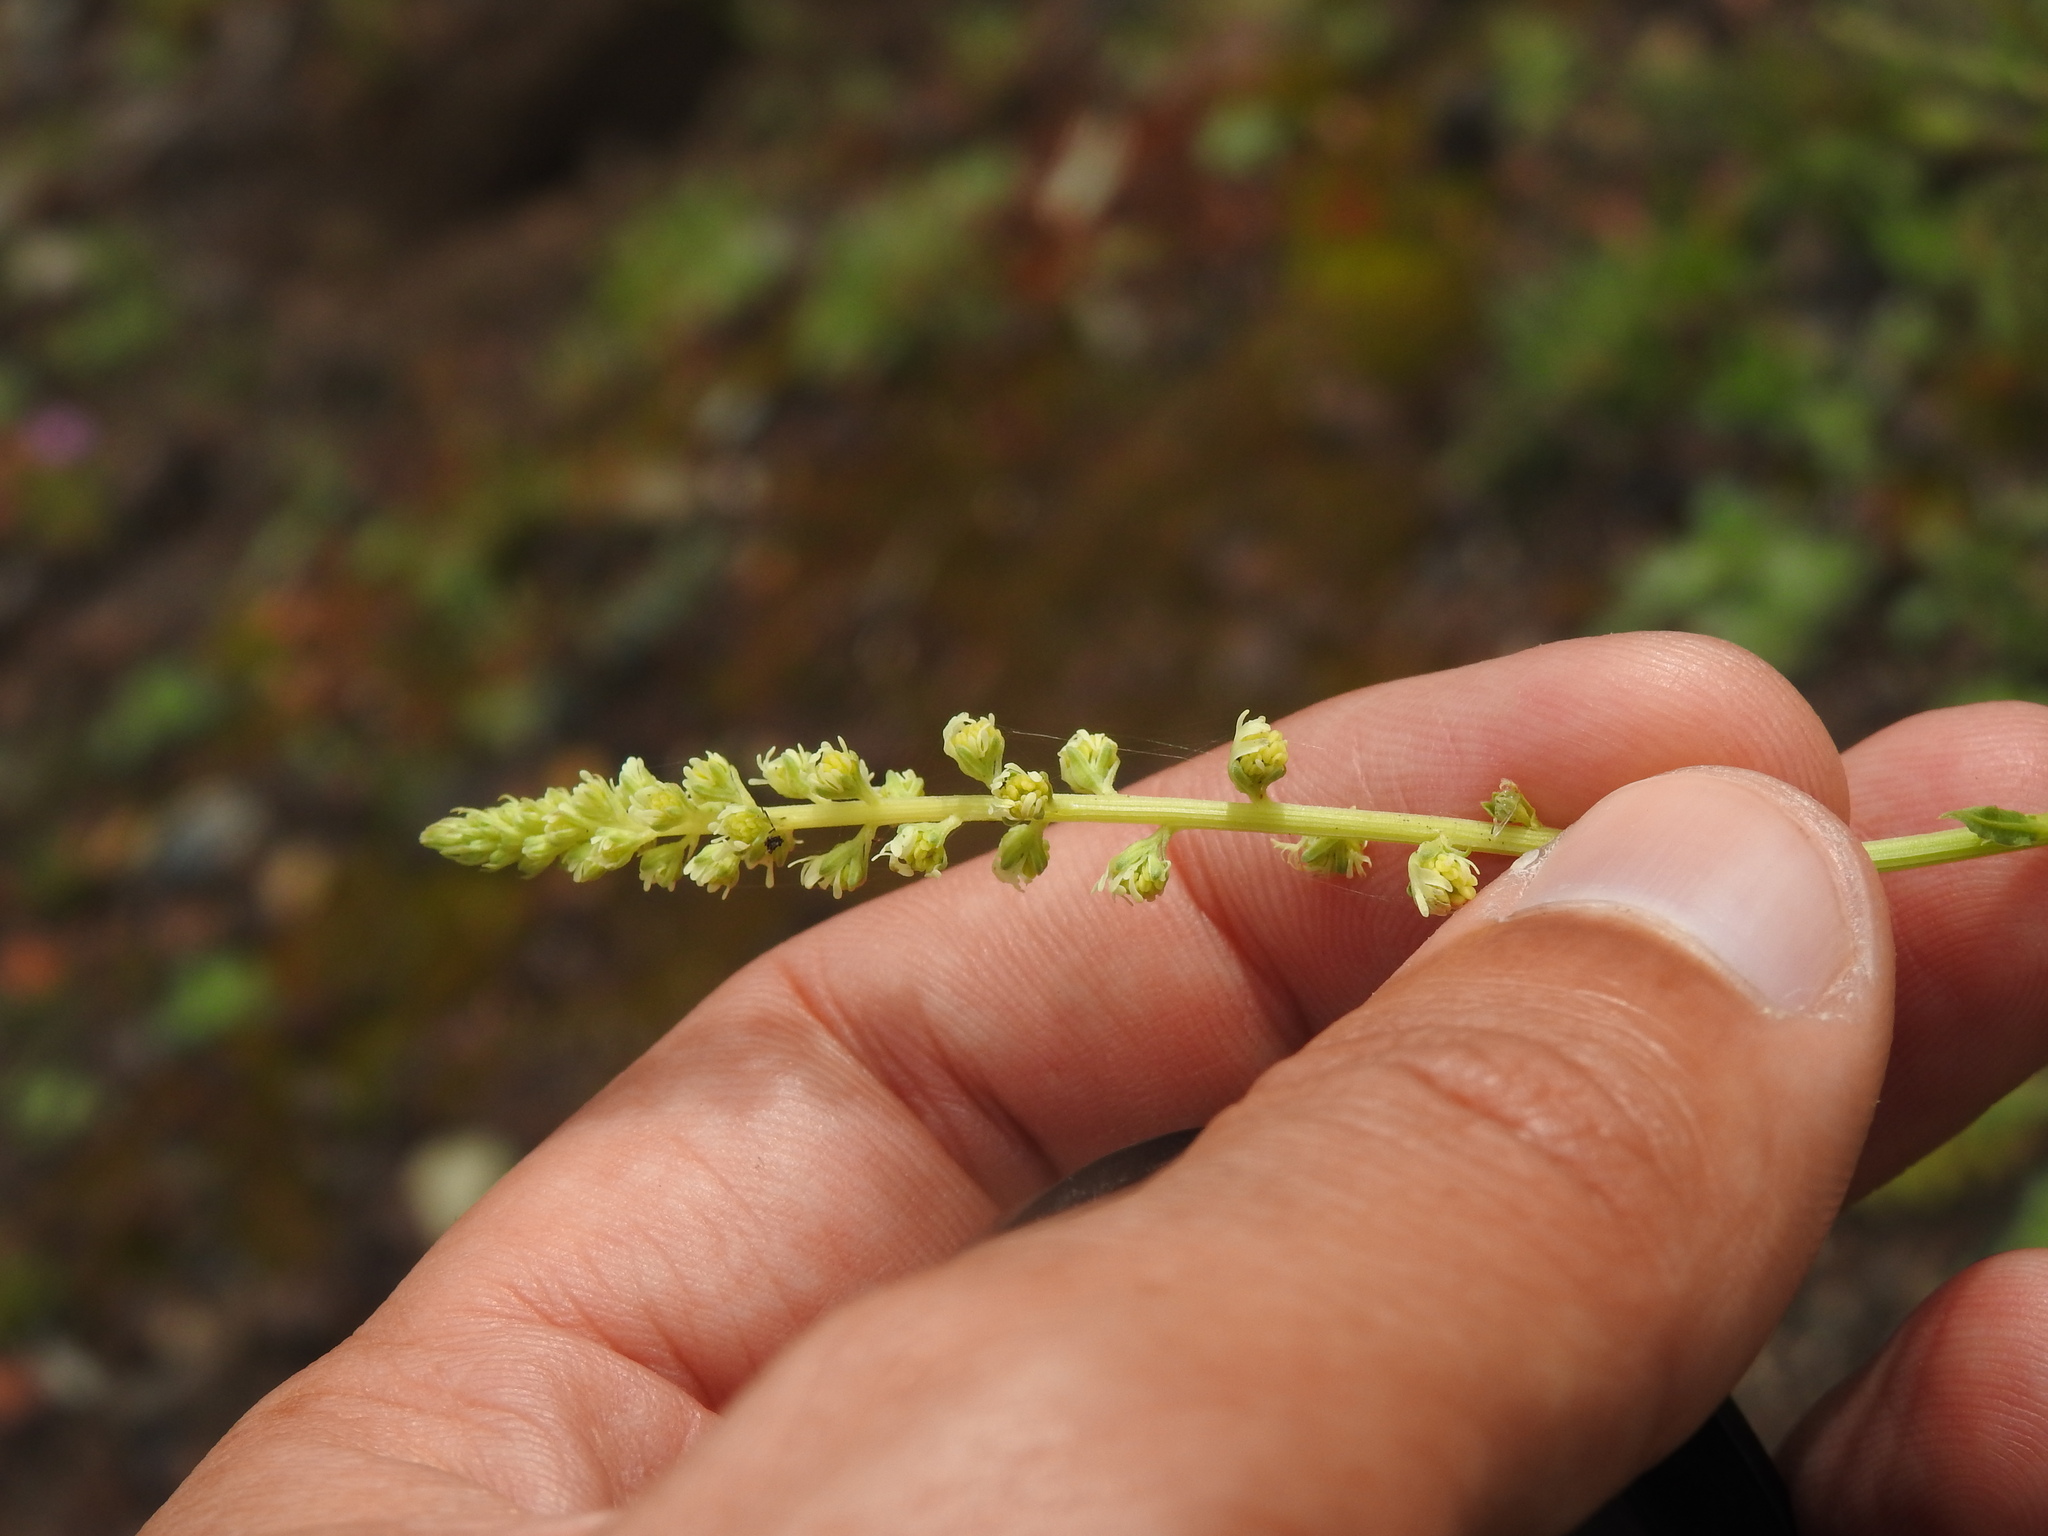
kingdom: Plantae
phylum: Tracheophyta
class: Magnoliopsida
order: Brassicales
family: Resedaceae
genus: Reseda
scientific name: Reseda luteola
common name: Weld
